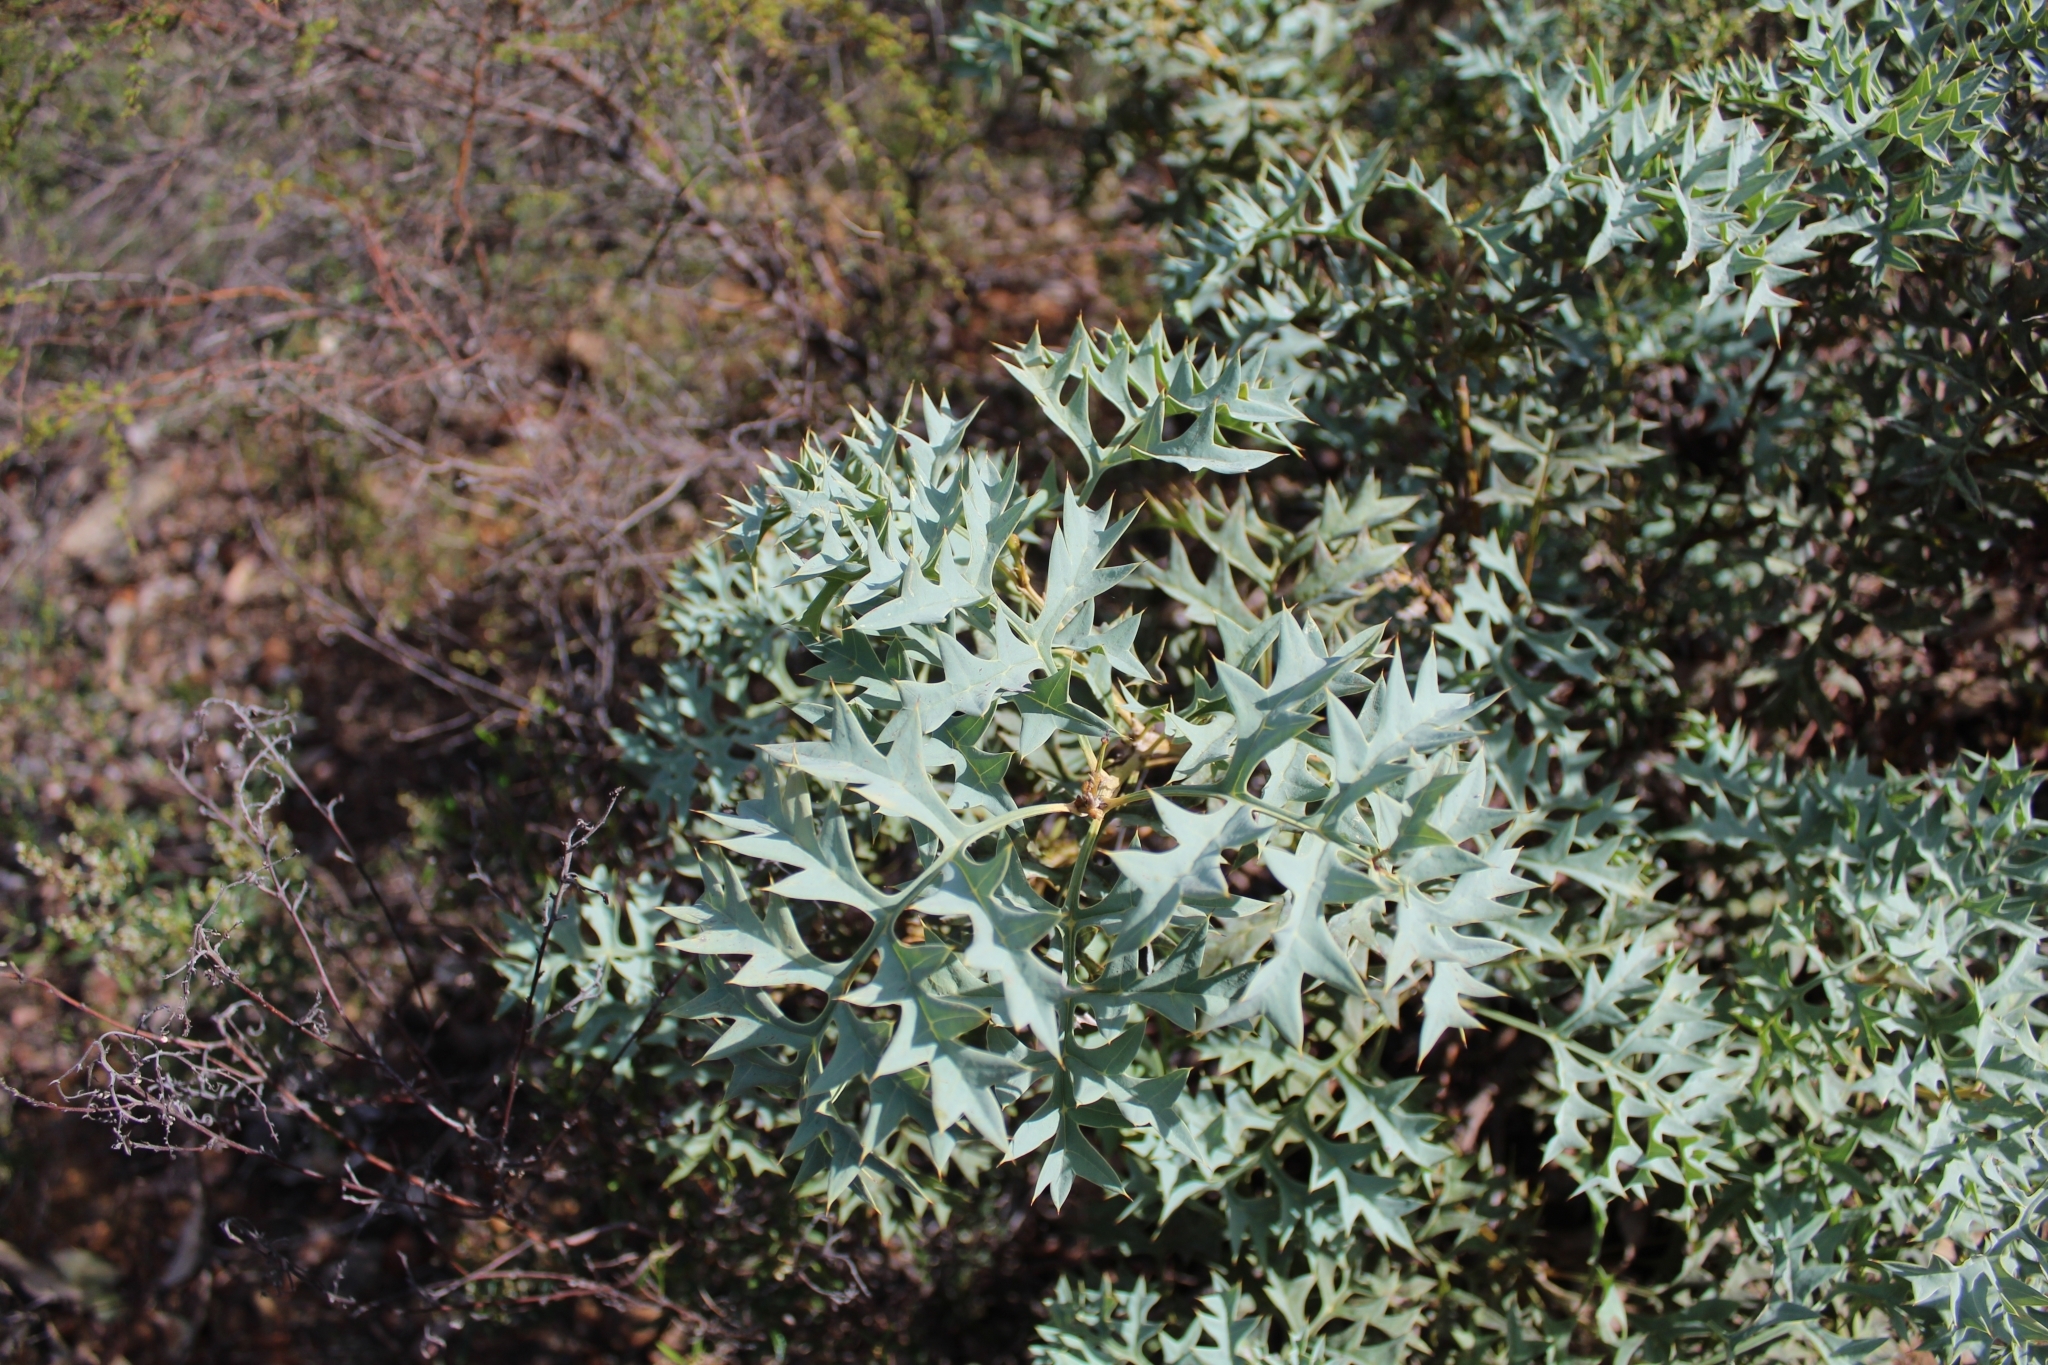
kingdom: Plantae
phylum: Tracheophyta
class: Magnoliopsida
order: Proteales
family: Proteaceae
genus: Grevillea
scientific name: Grevillea bipinnatifida
